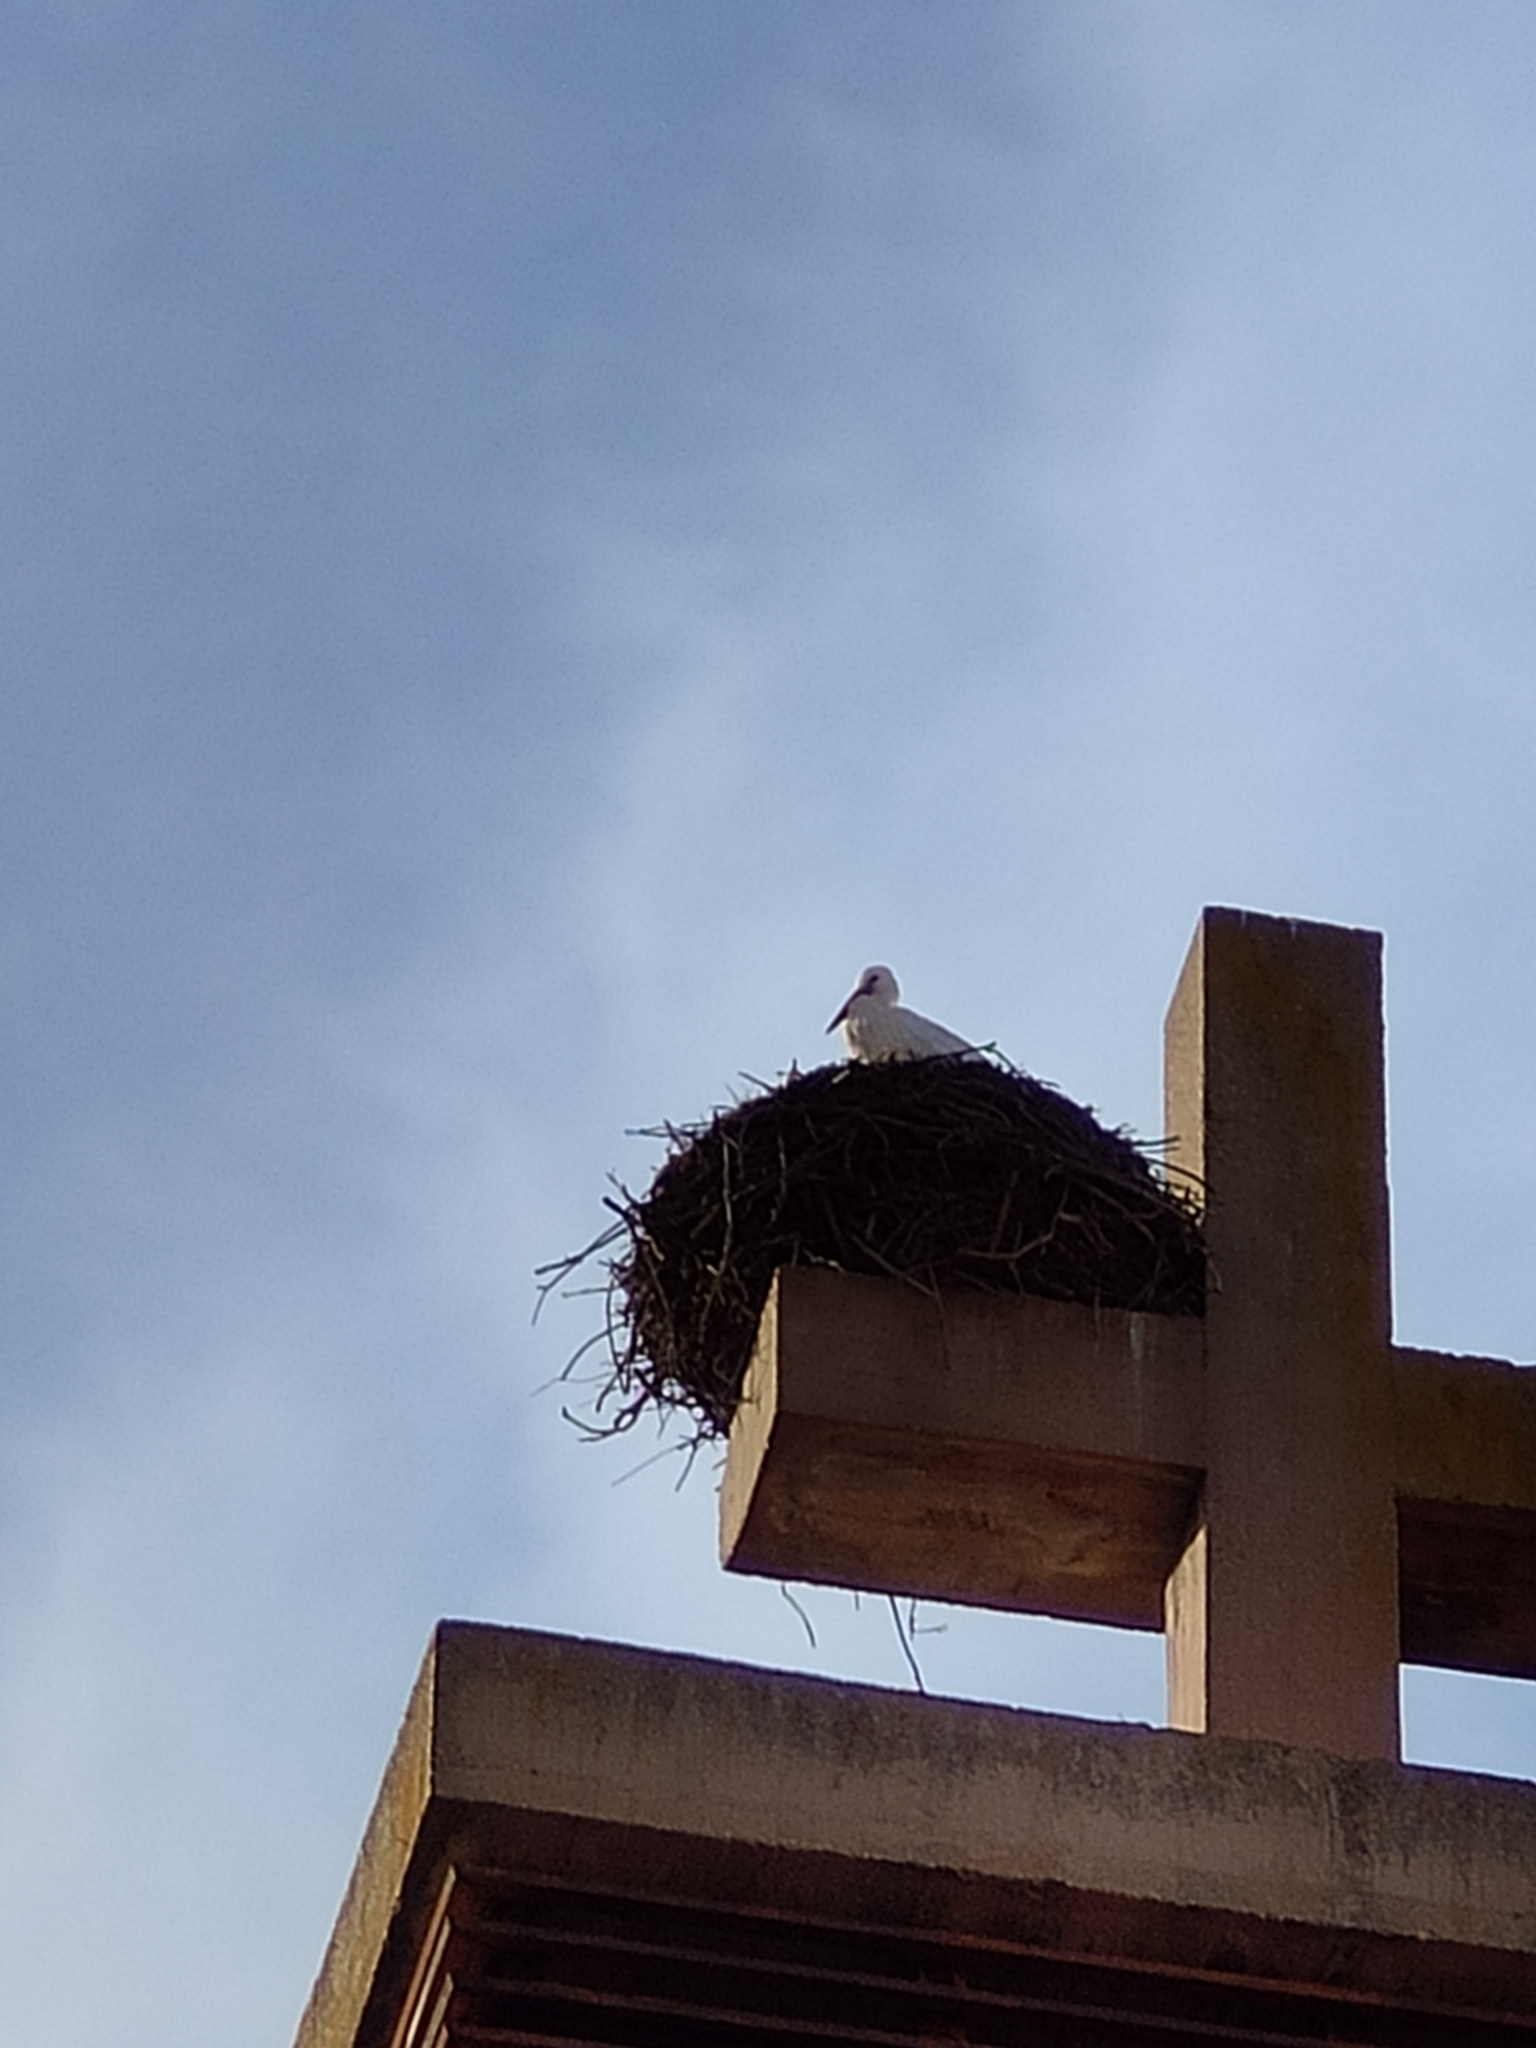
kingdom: Animalia
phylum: Chordata
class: Aves
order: Ciconiiformes
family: Ciconiidae
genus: Ciconia
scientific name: Ciconia ciconia
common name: White stork
